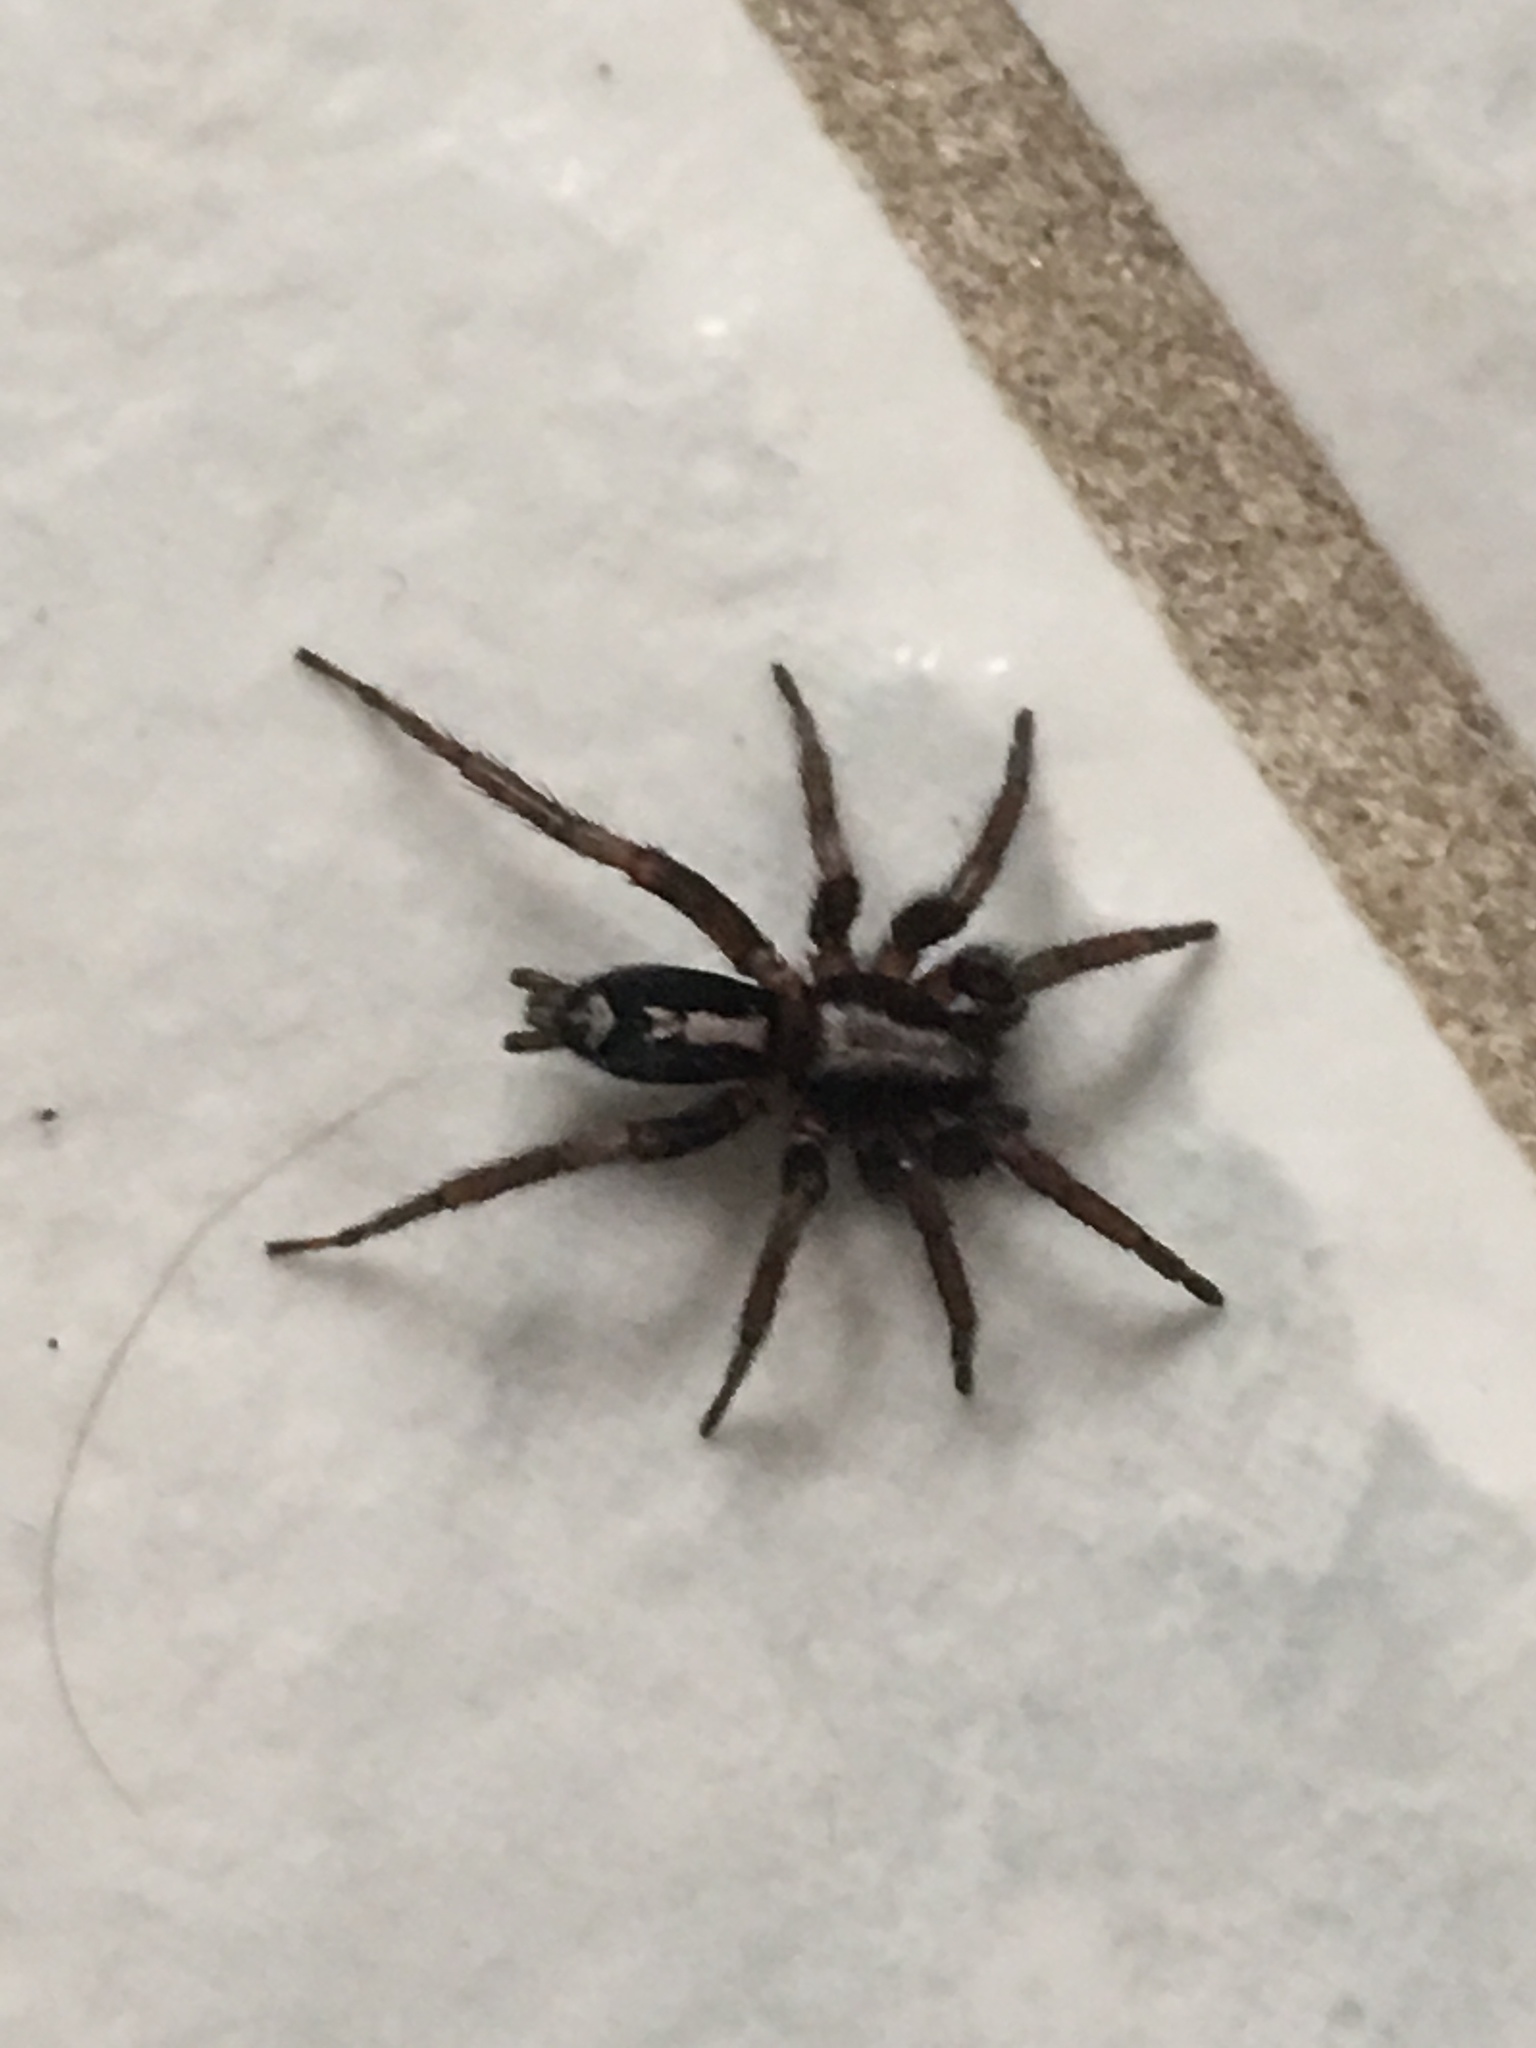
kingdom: Animalia
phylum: Arthropoda
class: Arachnida
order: Araneae
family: Gnaphosidae
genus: Herpyllus
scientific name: Herpyllus ecclesiasticus
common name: Eastern parson spider
